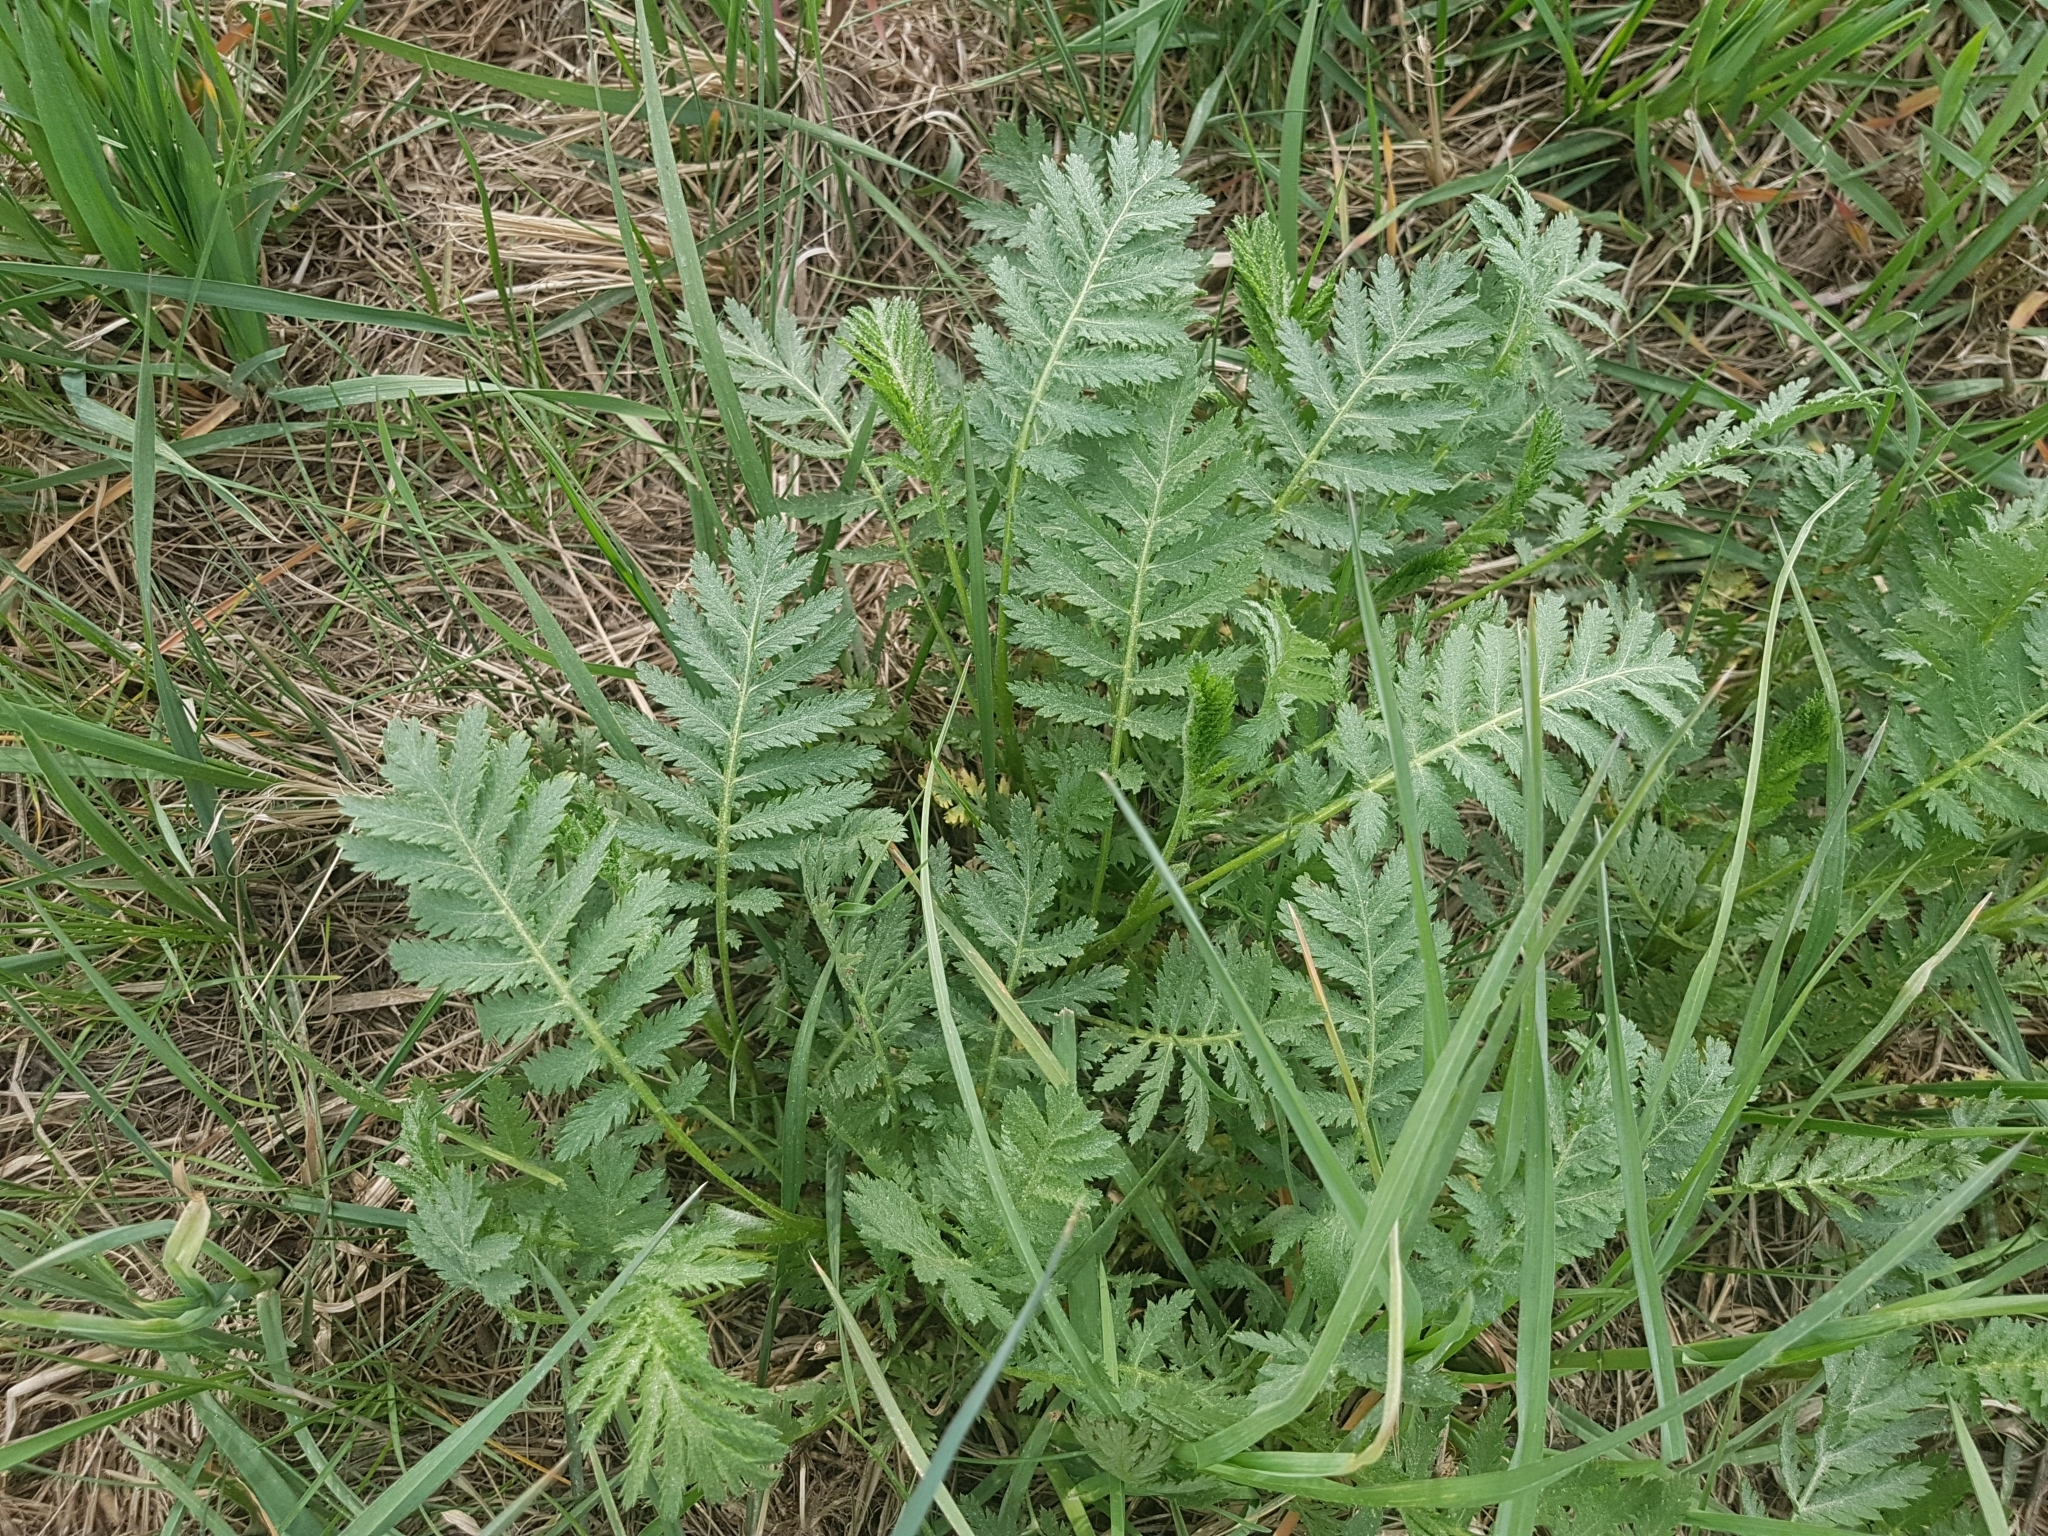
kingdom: Plantae
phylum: Tracheophyta
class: Magnoliopsida
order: Asterales
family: Asteraceae
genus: Tanacetum
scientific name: Tanacetum vulgare
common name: Common tansy
